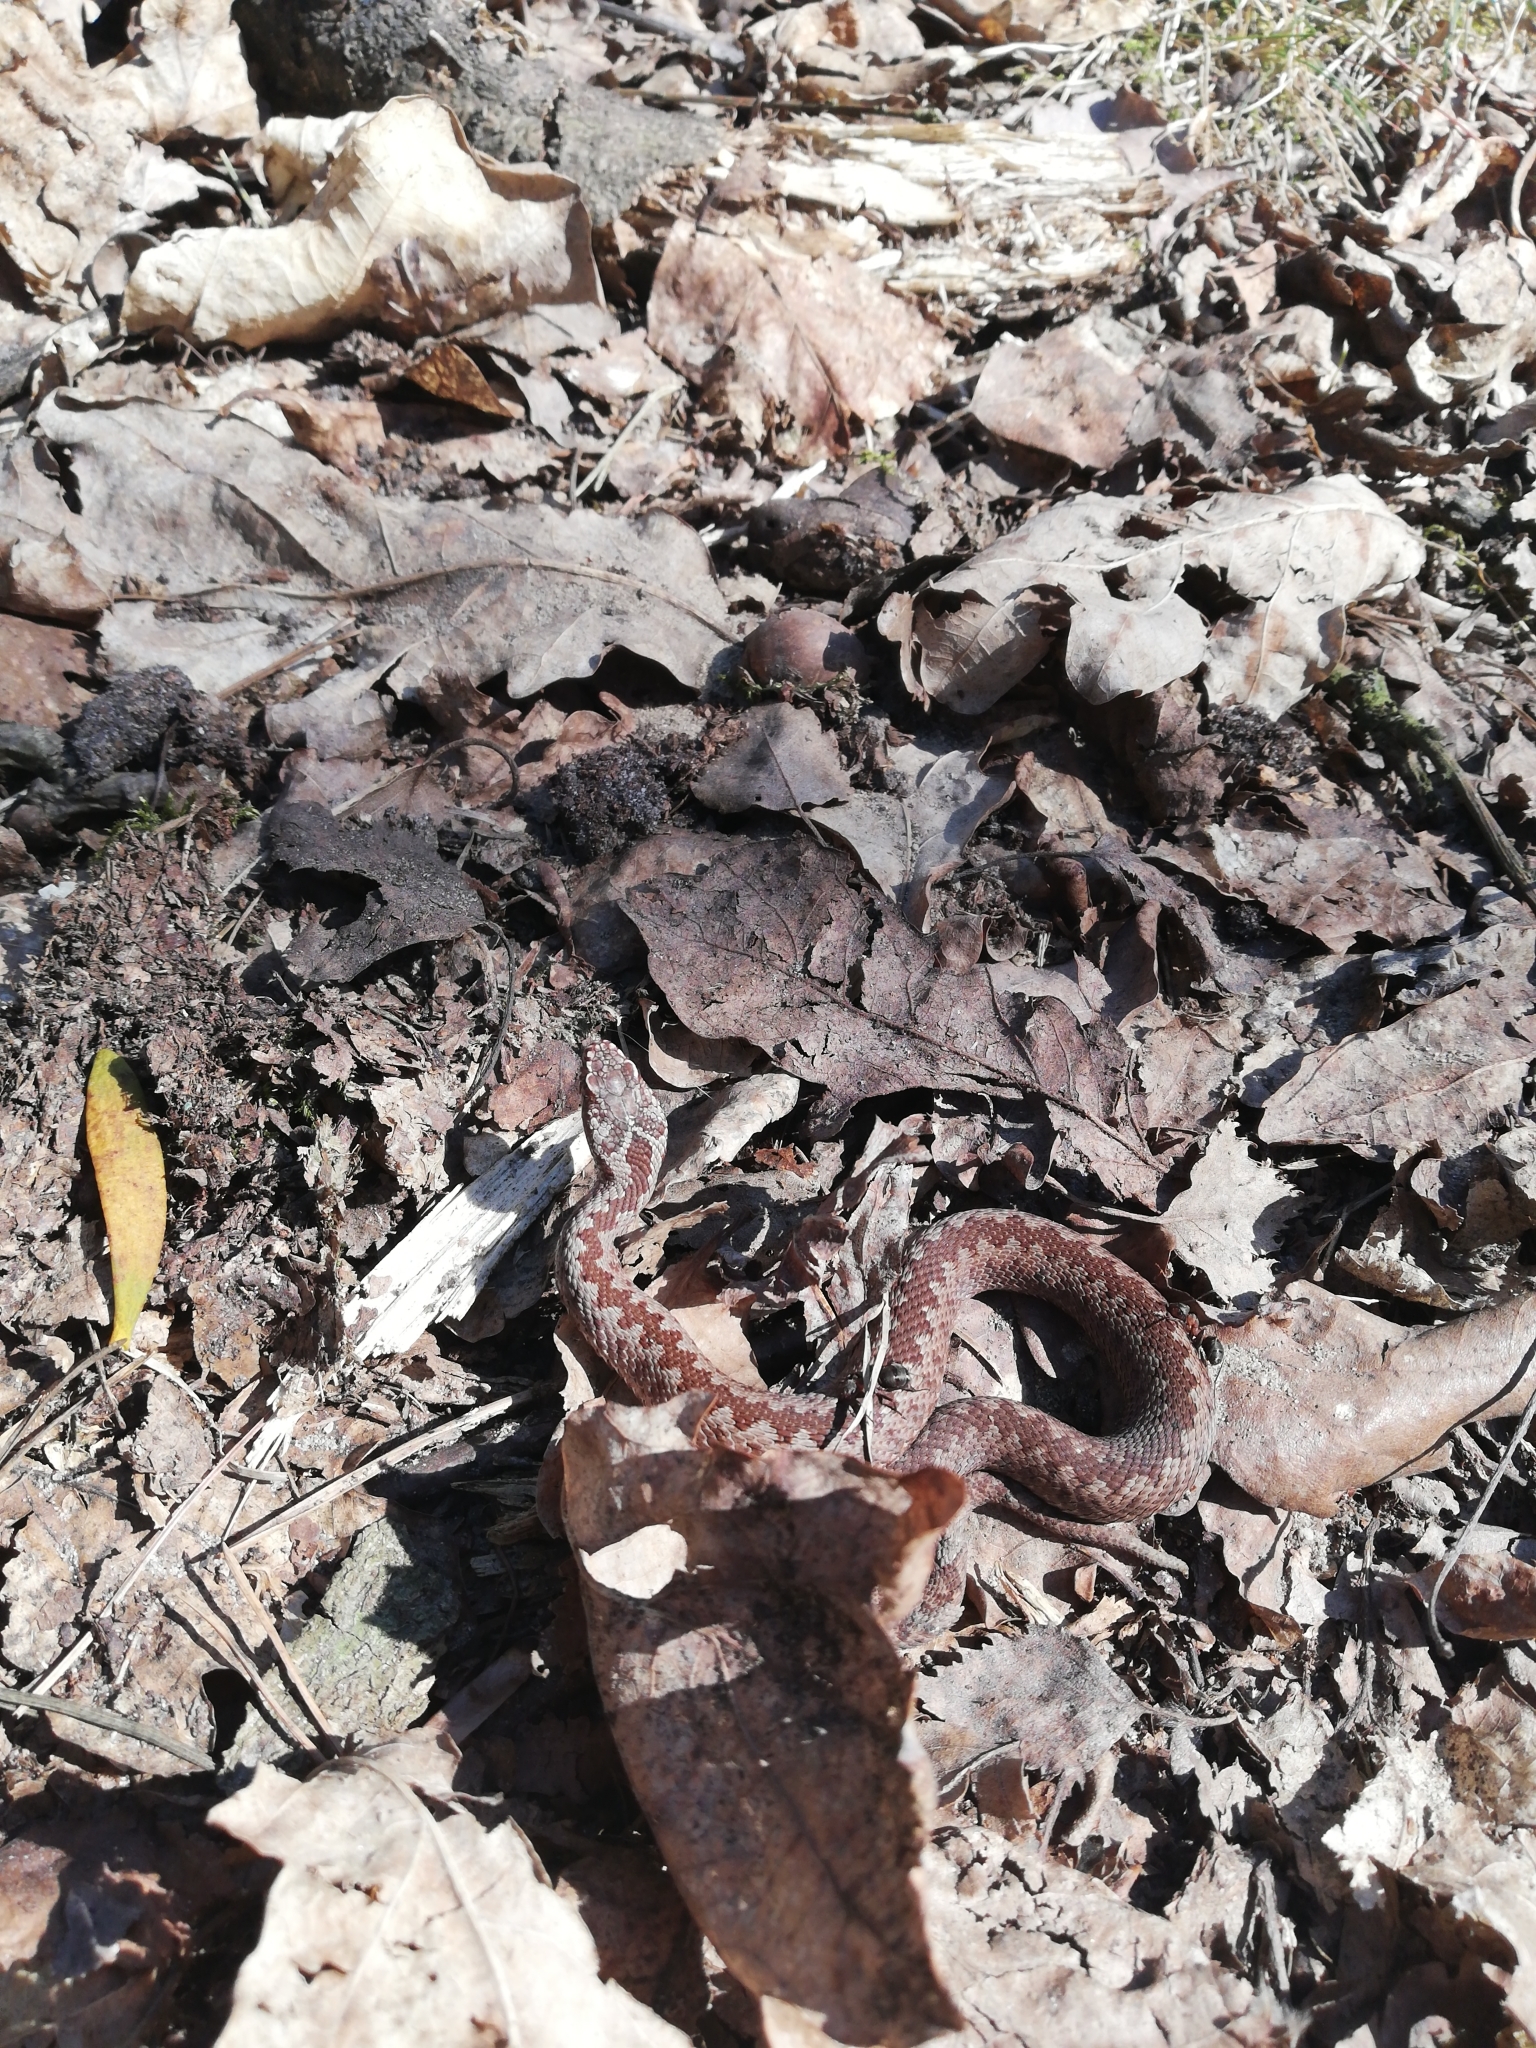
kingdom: Animalia
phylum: Chordata
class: Squamata
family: Viperidae
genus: Vipera
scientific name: Vipera berus
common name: Adder
